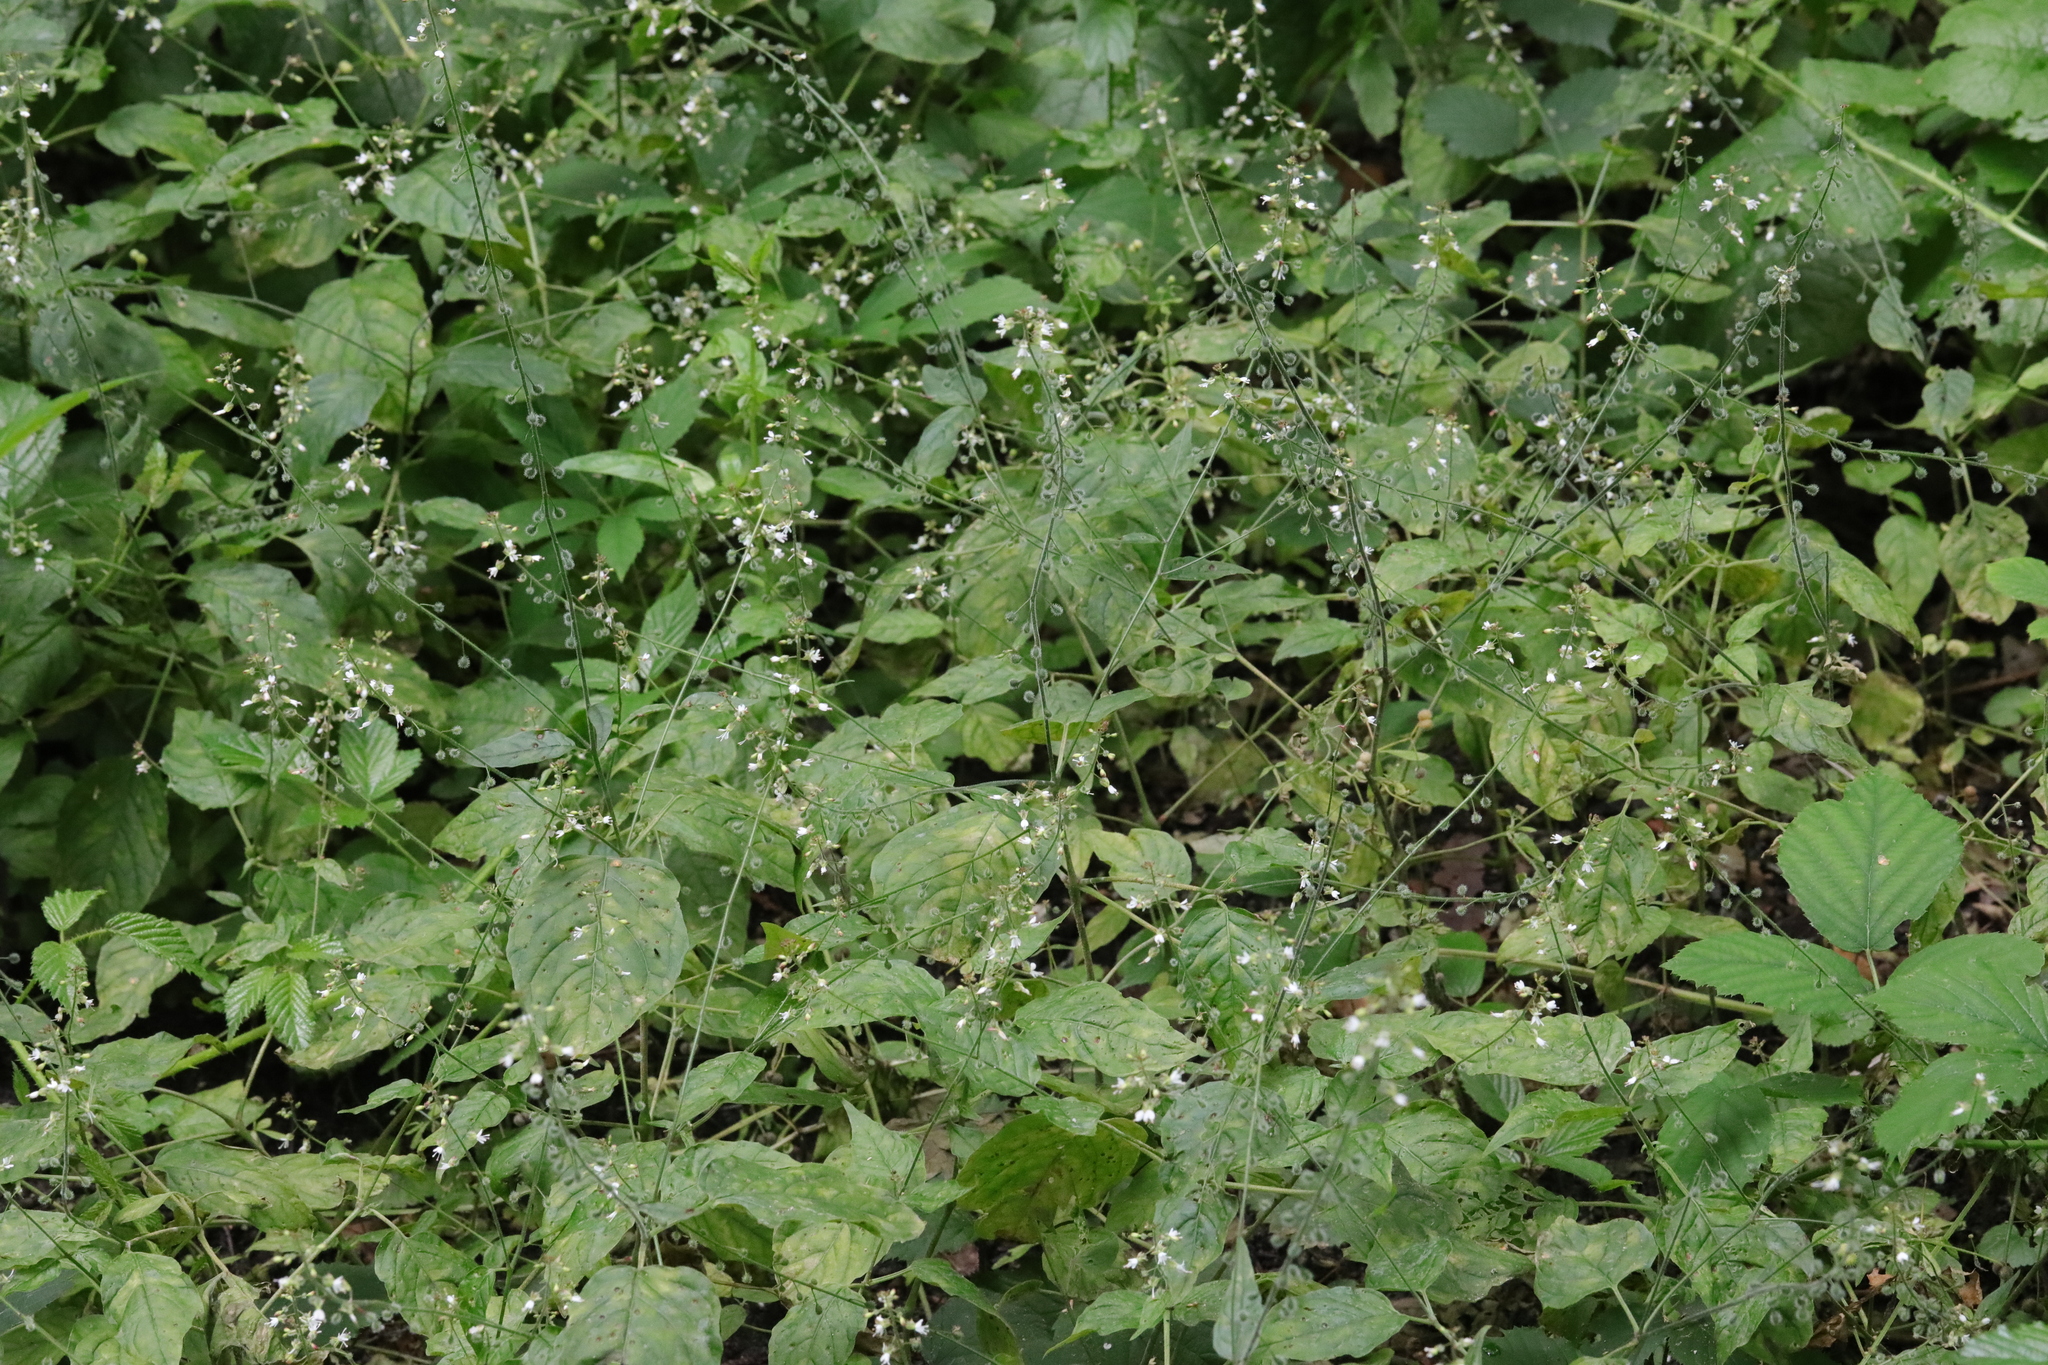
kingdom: Plantae
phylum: Tracheophyta
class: Magnoliopsida
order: Myrtales
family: Onagraceae
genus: Circaea
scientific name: Circaea lutetiana
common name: Enchanter's-nightshade
